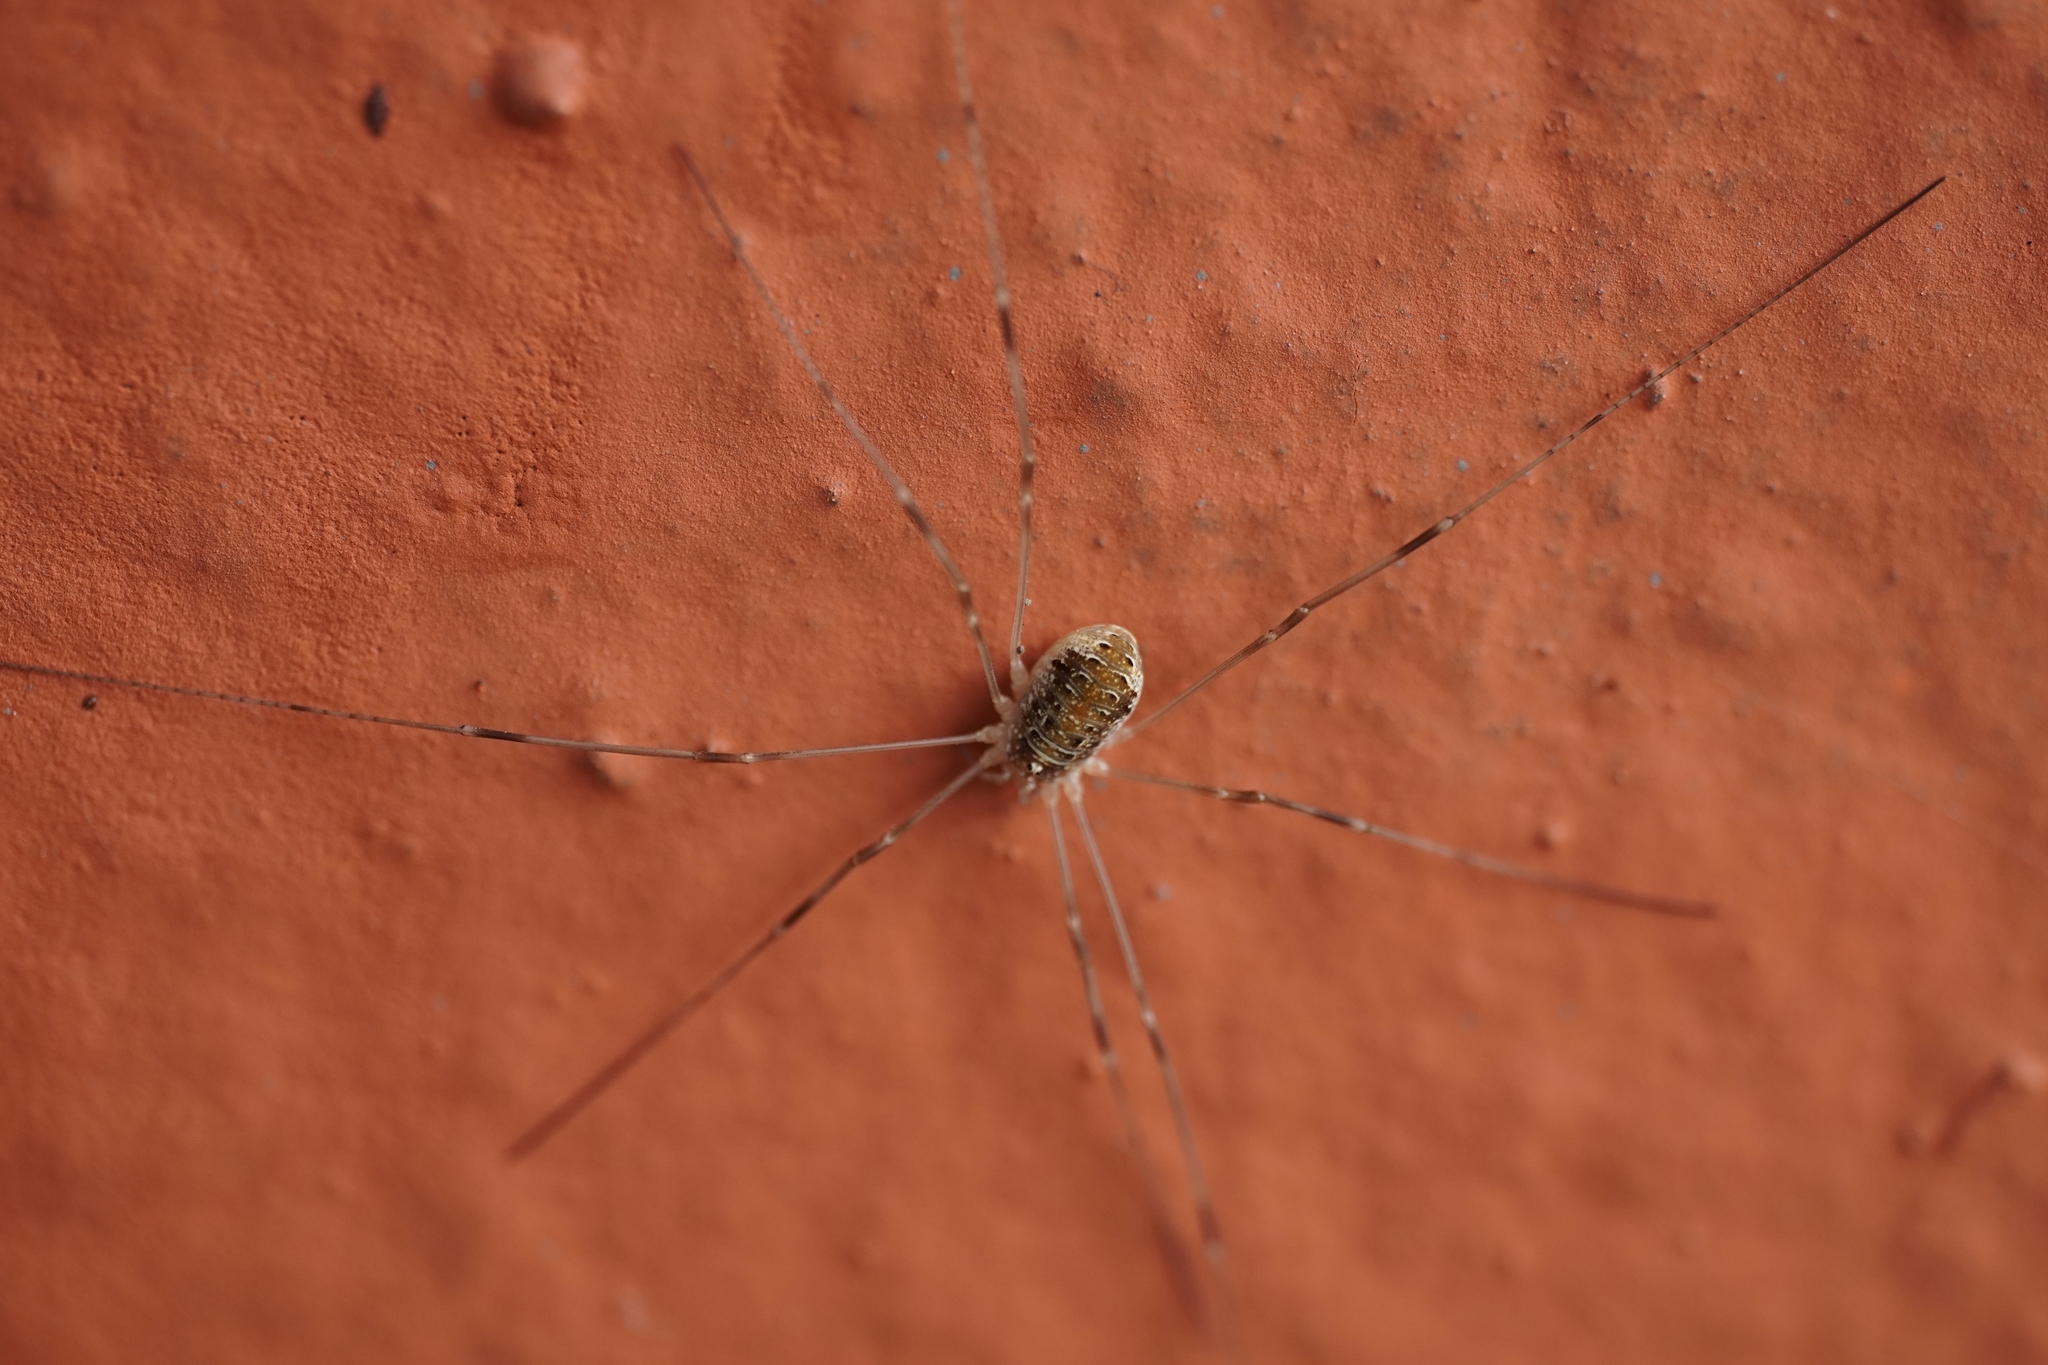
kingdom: Animalia
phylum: Arthropoda
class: Arachnida
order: Opiliones
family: Phalangiidae
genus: Opilio
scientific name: Opilio canestrinii
